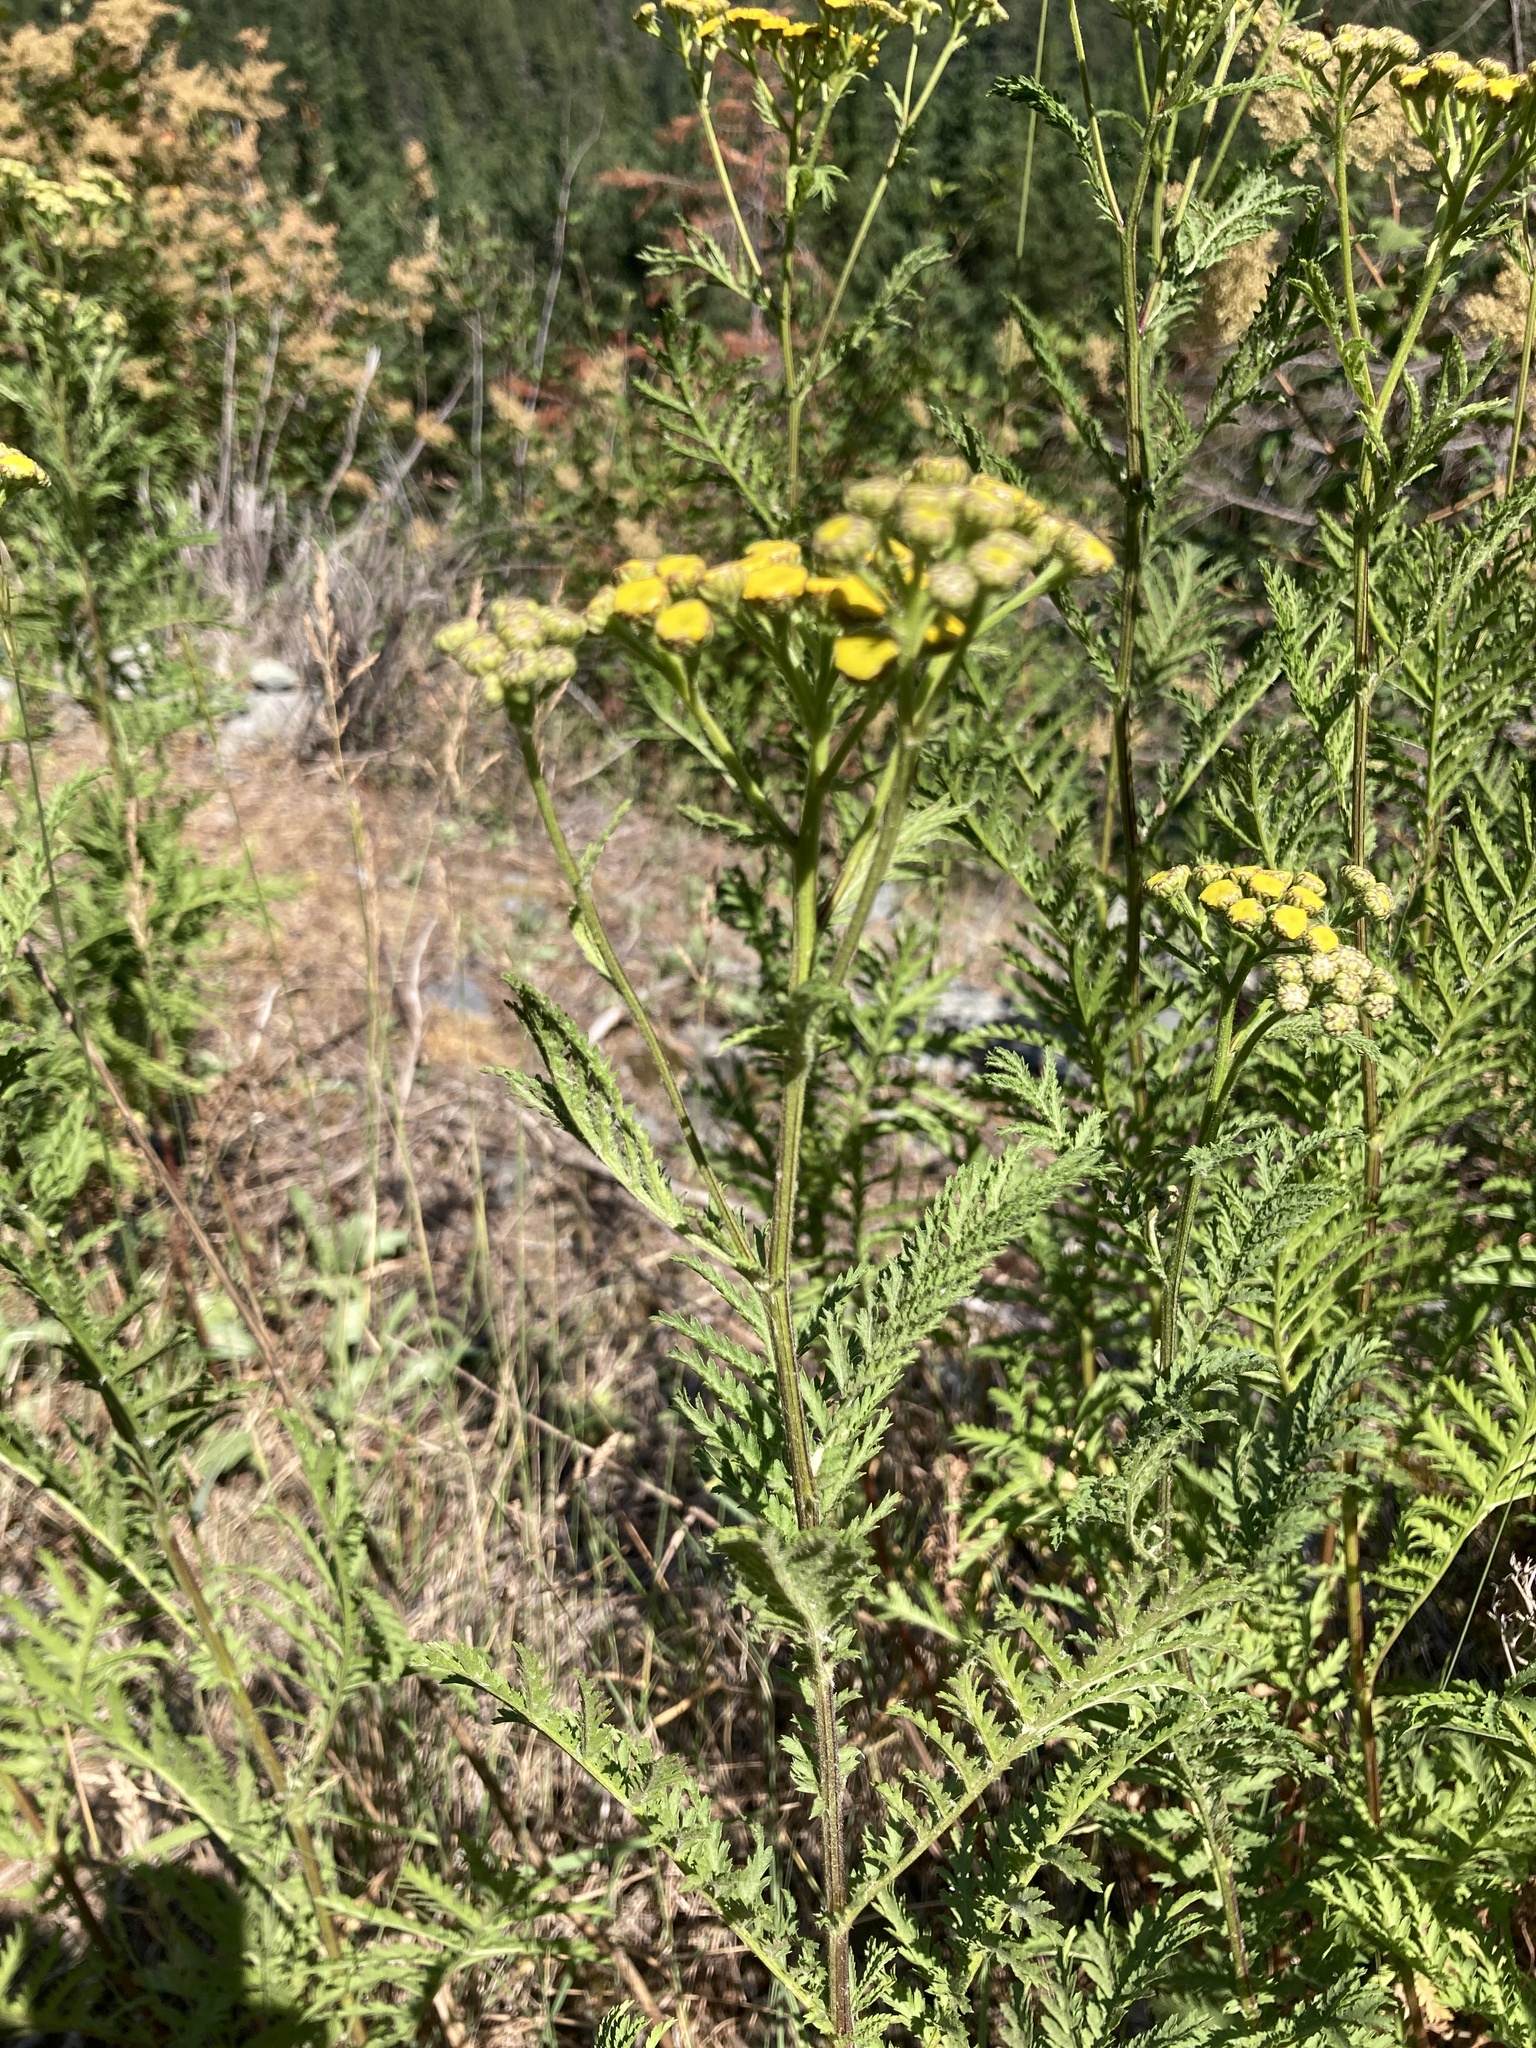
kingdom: Plantae
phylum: Tracheophyta
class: Magnoliopsida
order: Asterales
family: Asteraceae
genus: Tanacetum
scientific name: Tanacetum vulgare
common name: Common tansy
